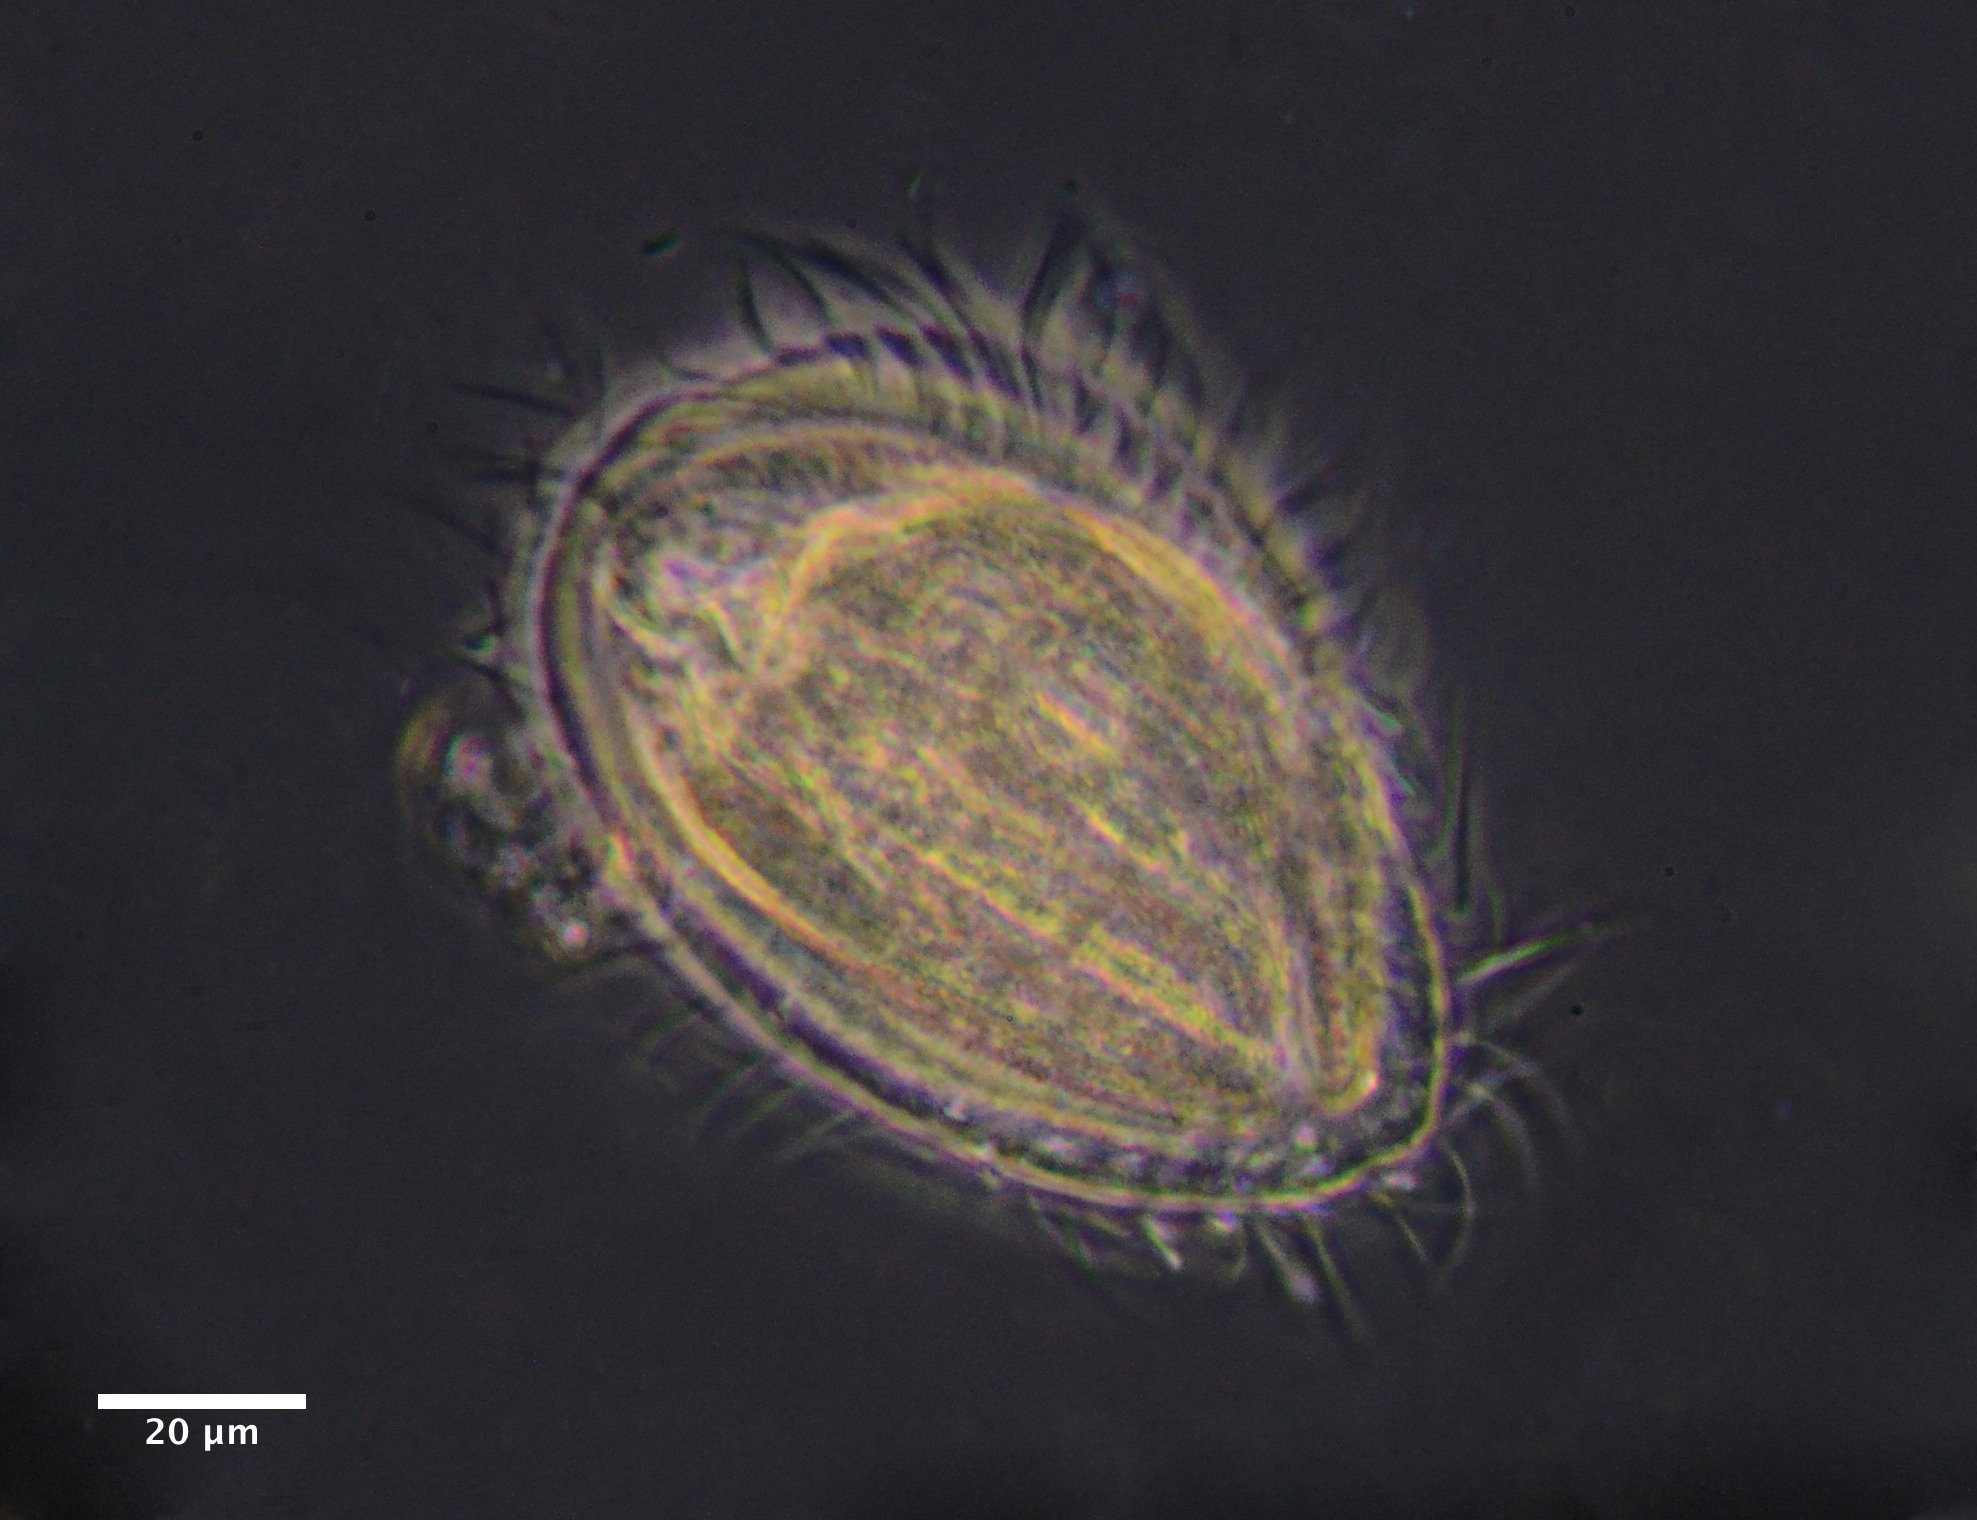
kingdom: Chromista
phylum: Ciliophora
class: Spirotrichea
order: Phacodiniida
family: Phacodiniidae
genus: Phacodinium
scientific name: Phacodinium metchnikoffi
